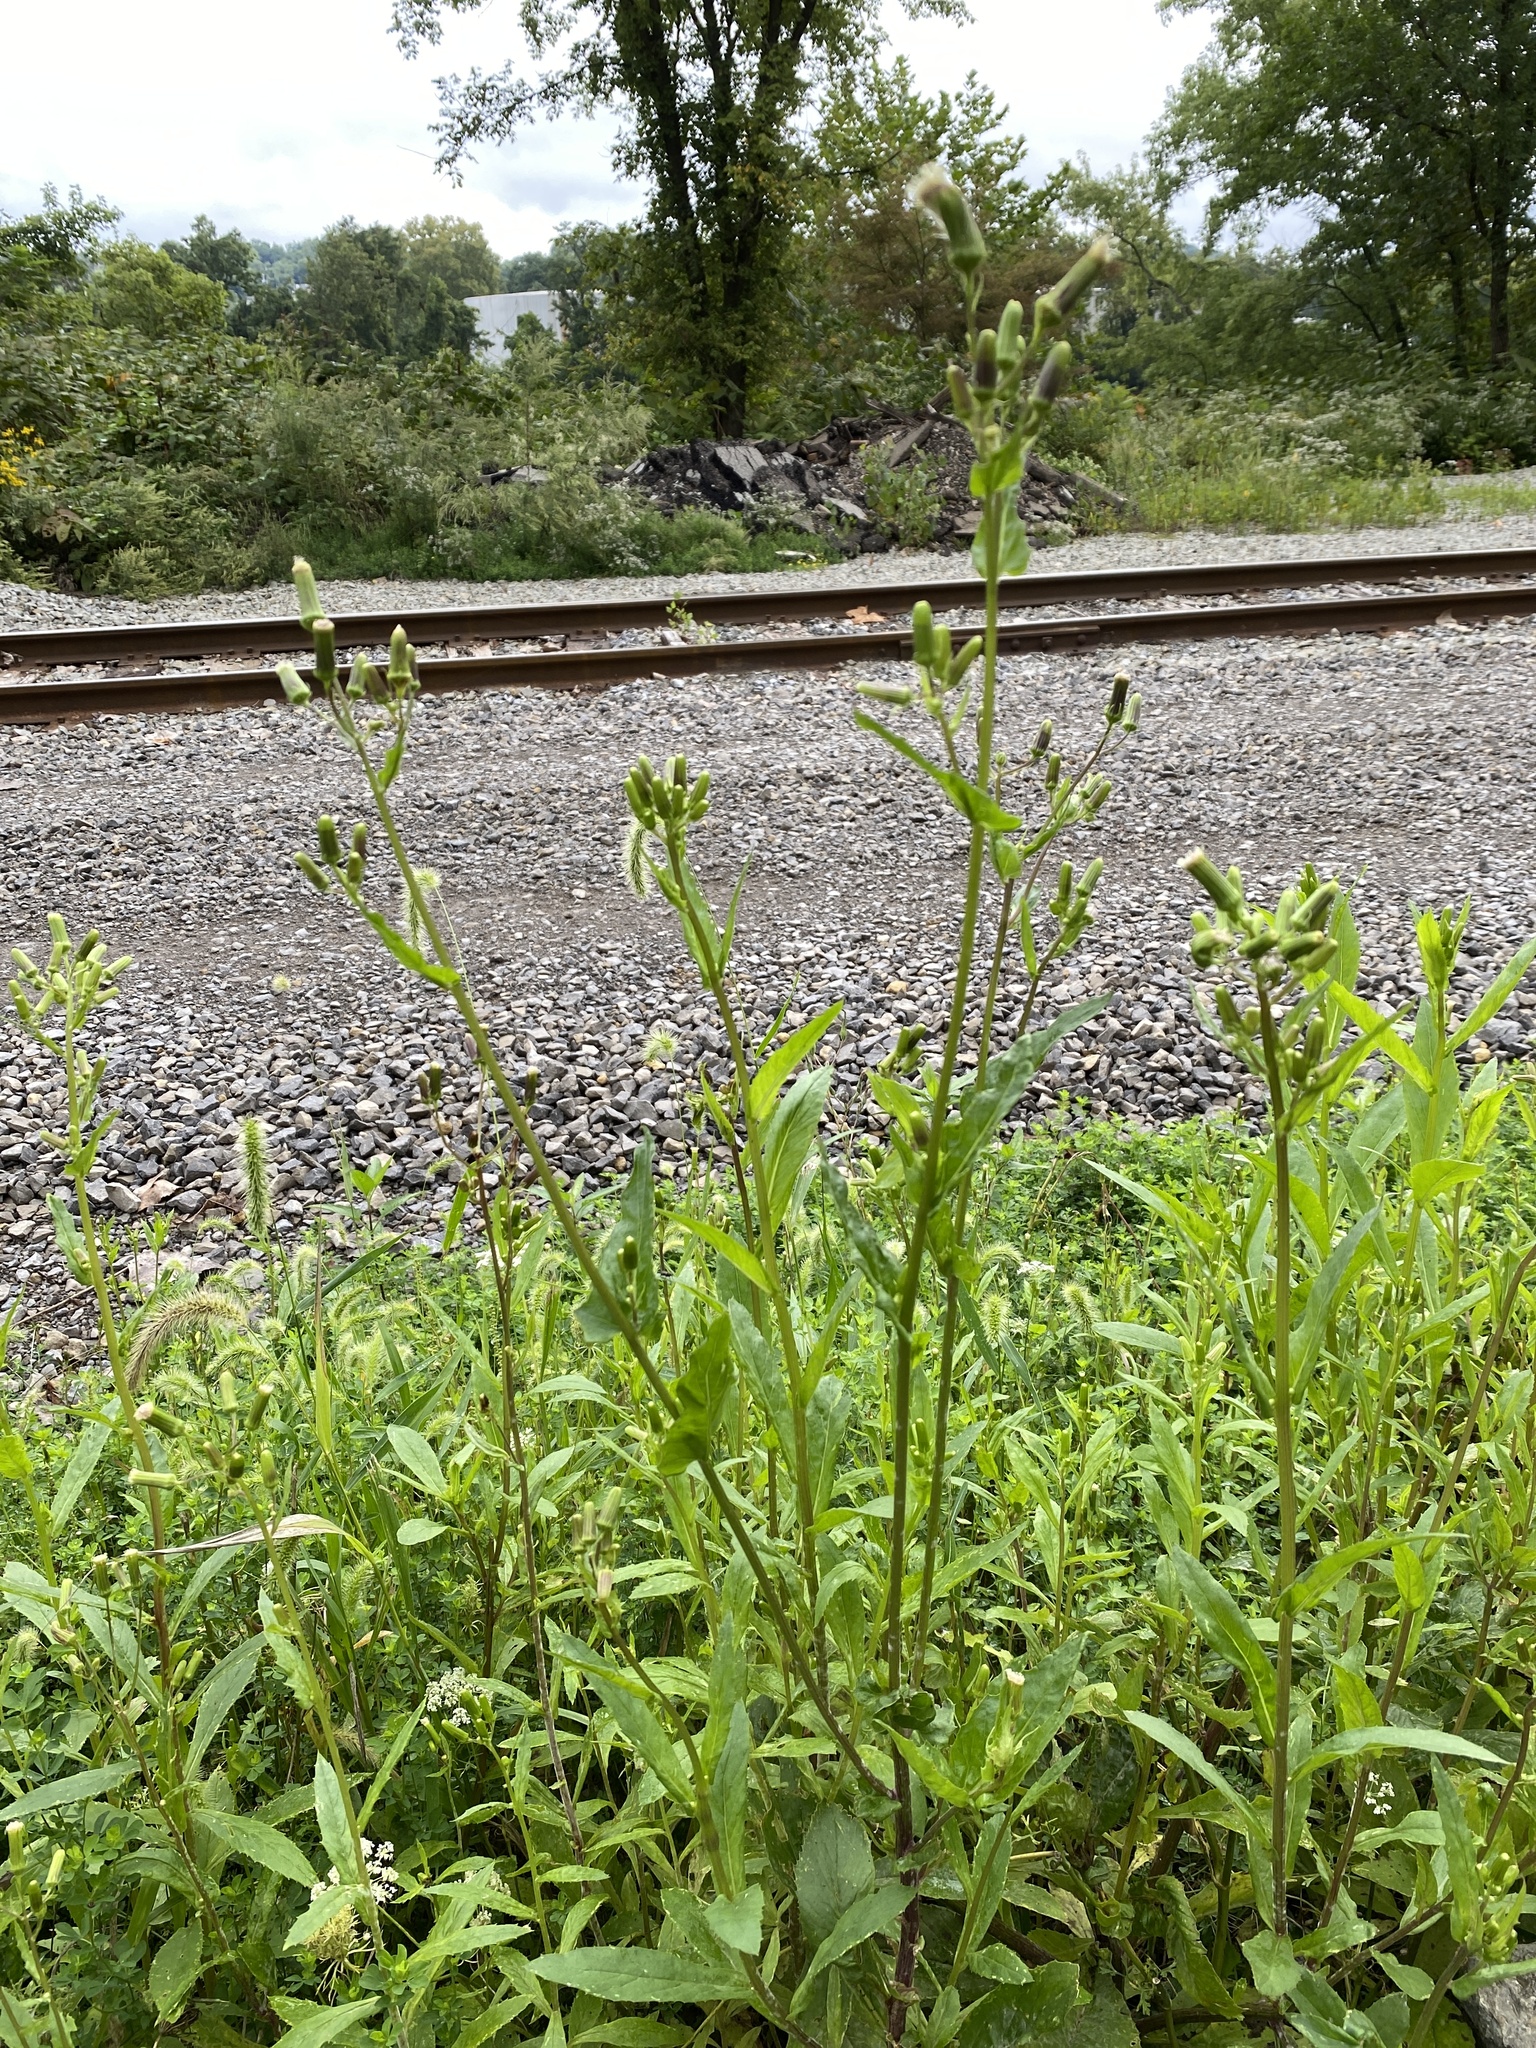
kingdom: Plantae
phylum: Tracheophyta
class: Magnoliopsida
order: Asterales
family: Asteraceae
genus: Erechtites
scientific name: Erechtites hieraciifolius
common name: American burnweed
